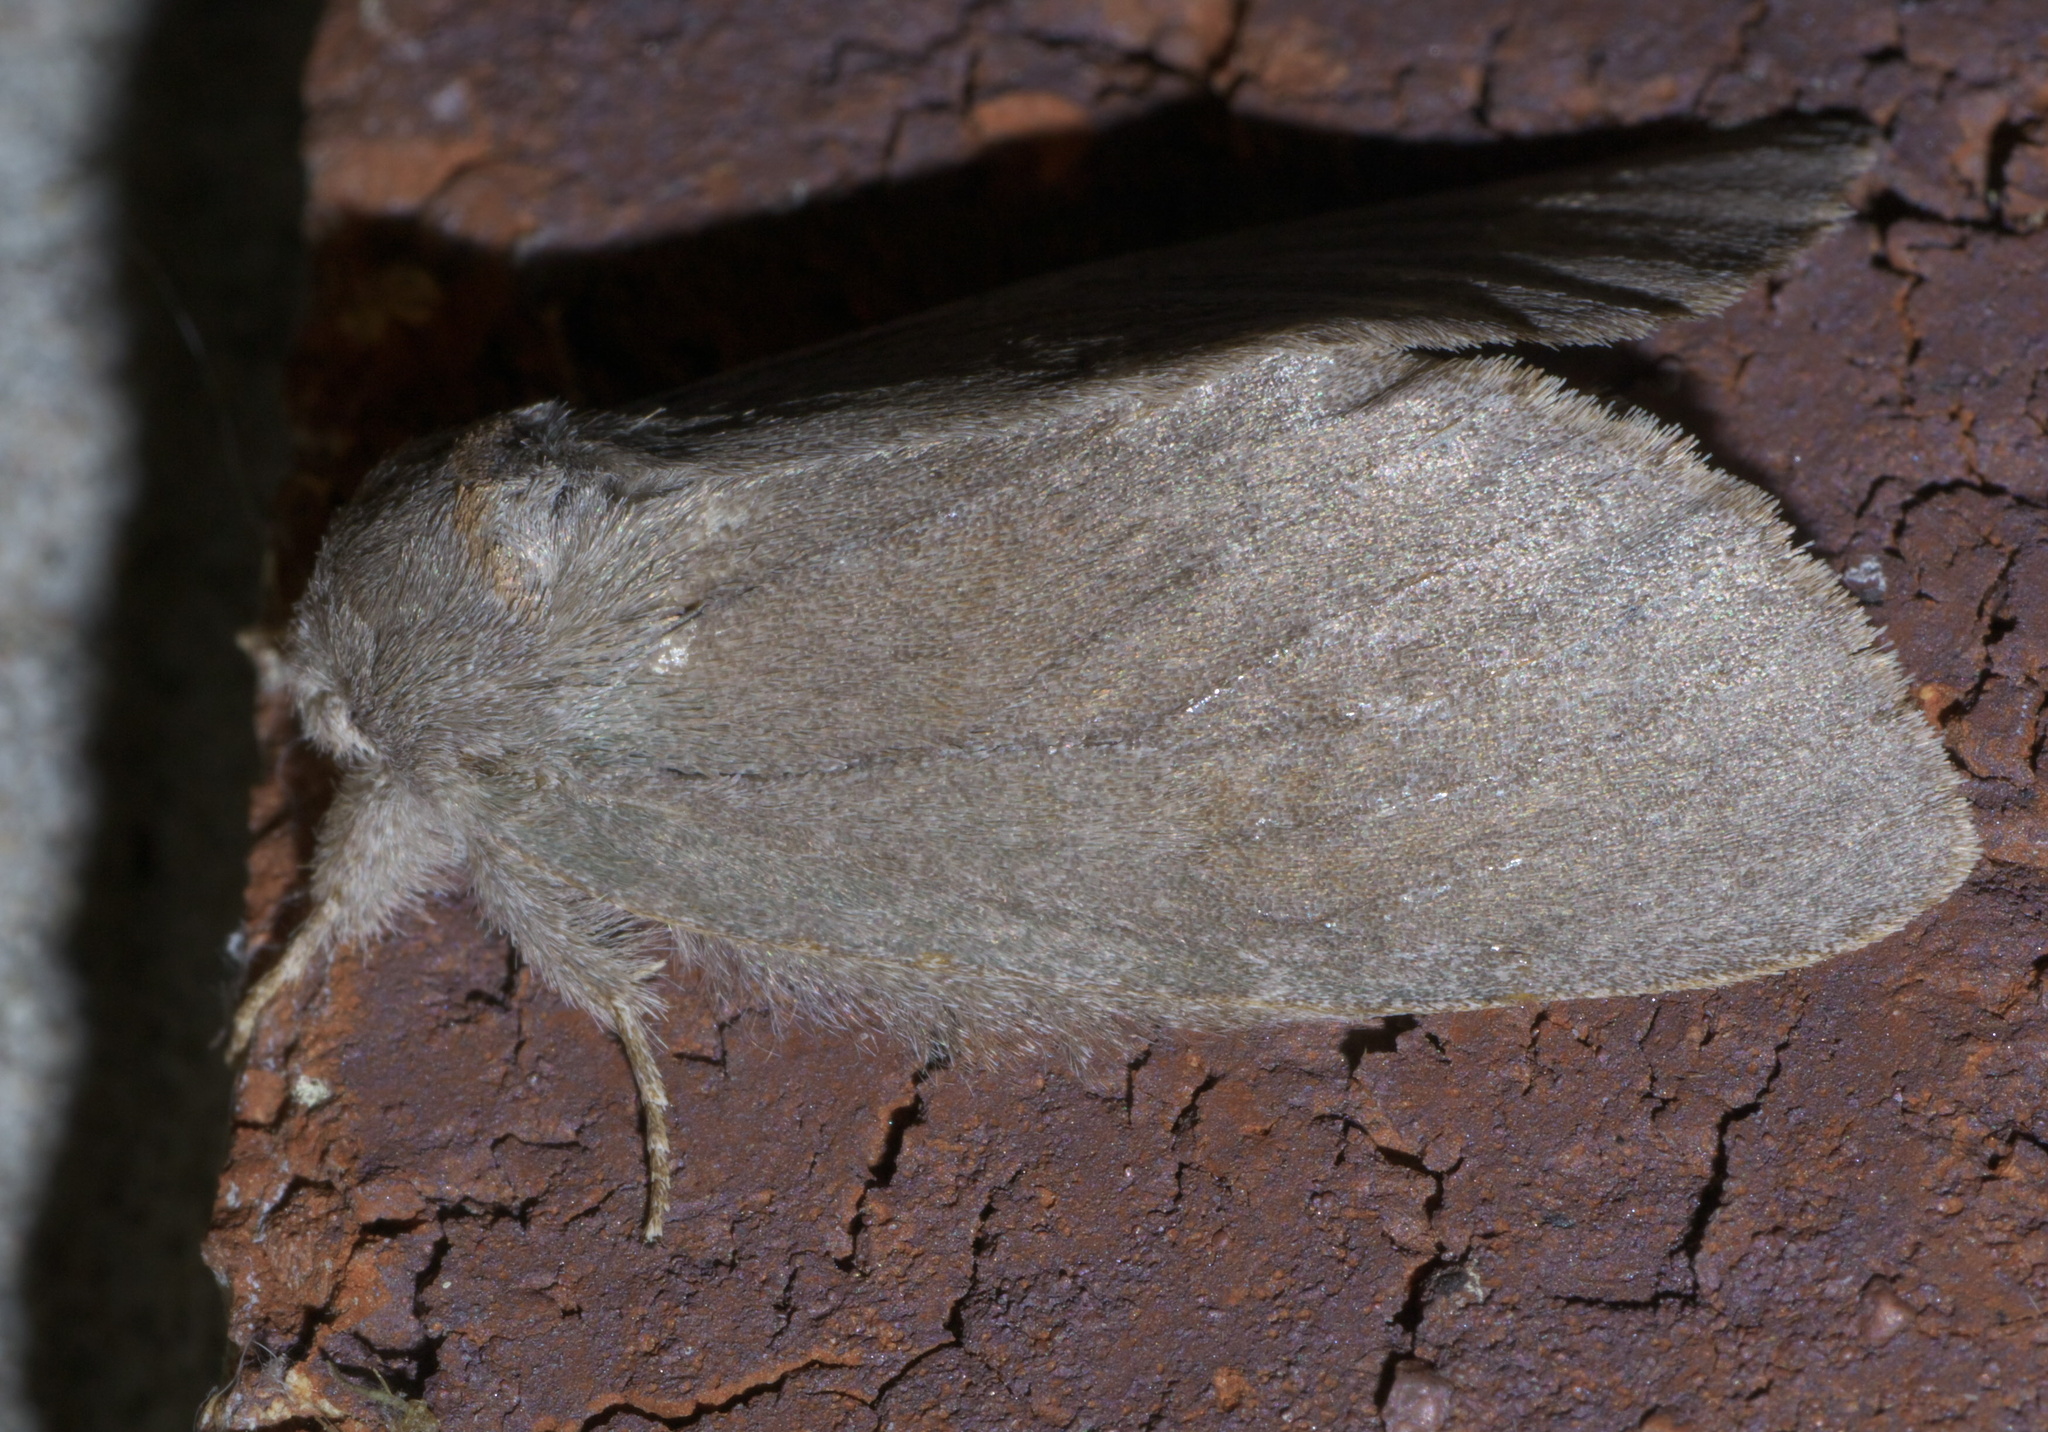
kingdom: Animalia
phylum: Arthropoda
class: Insecta
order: Lepidoptera
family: Notodontidae
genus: Misogada
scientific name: Misogada unicolor
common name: Drab prominent
